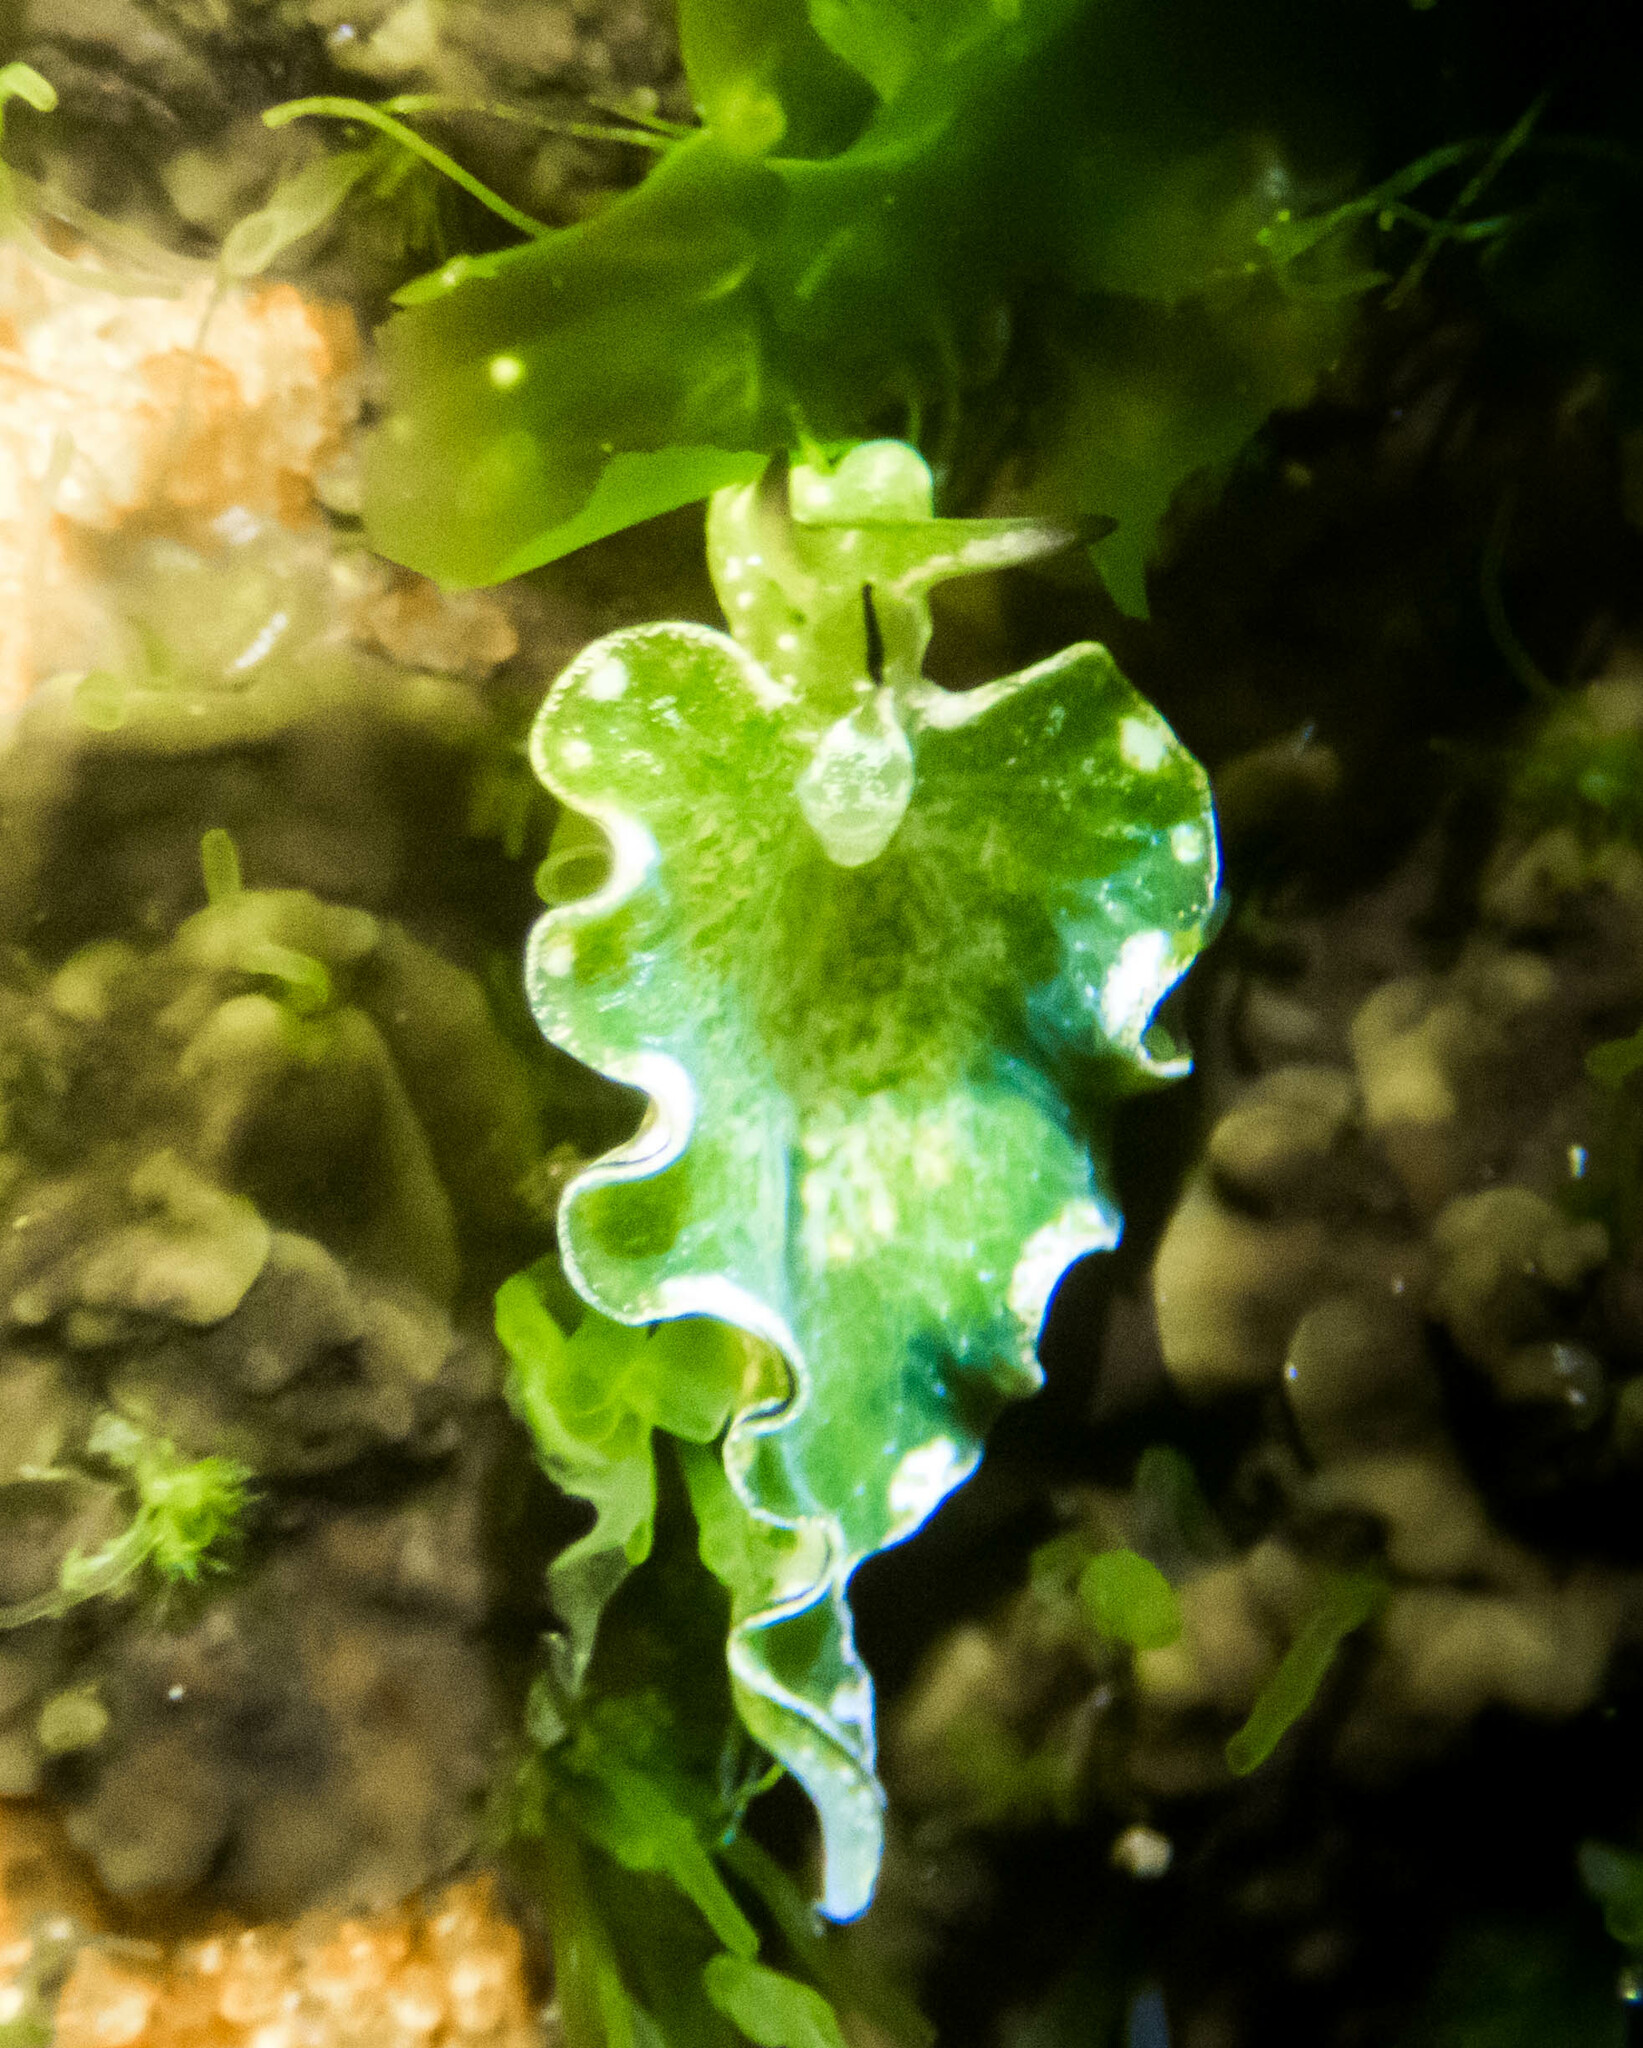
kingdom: Animalia
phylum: Mollusca
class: Gastropoda
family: Plakobranchidae
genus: Elysia
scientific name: Elysia coodgeensis
